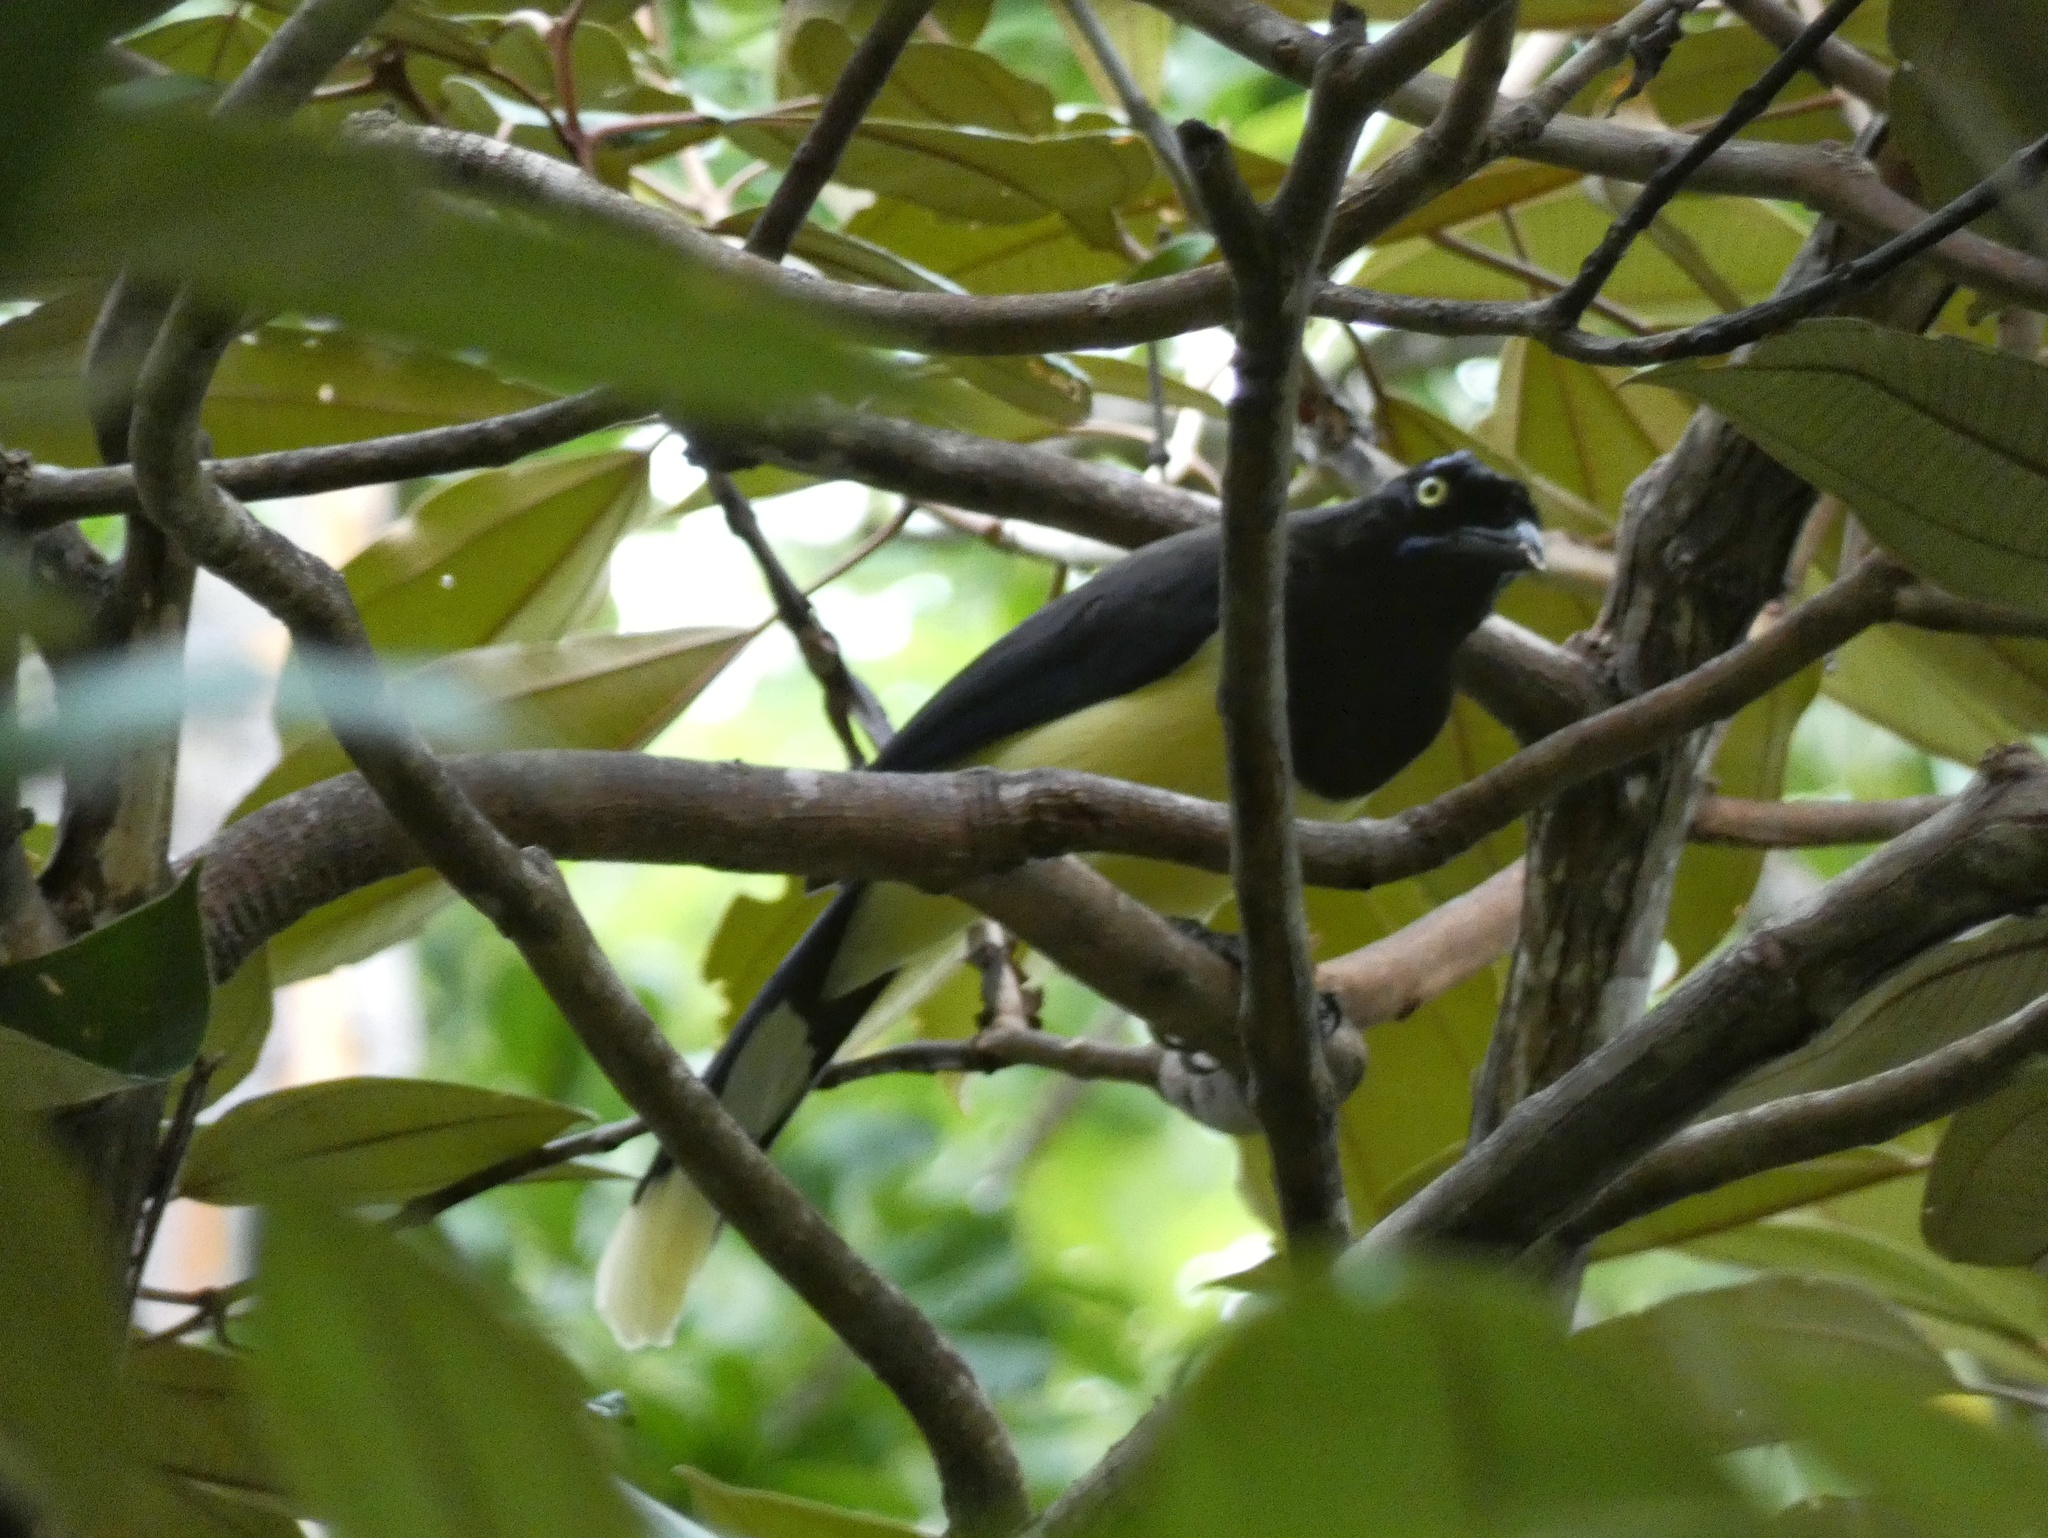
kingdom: Animalia
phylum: Chordata
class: Aves
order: Passeriformes
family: Corvidae
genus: Cyanocorax
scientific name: Cyanocorax affinis
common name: Black-chested jay
